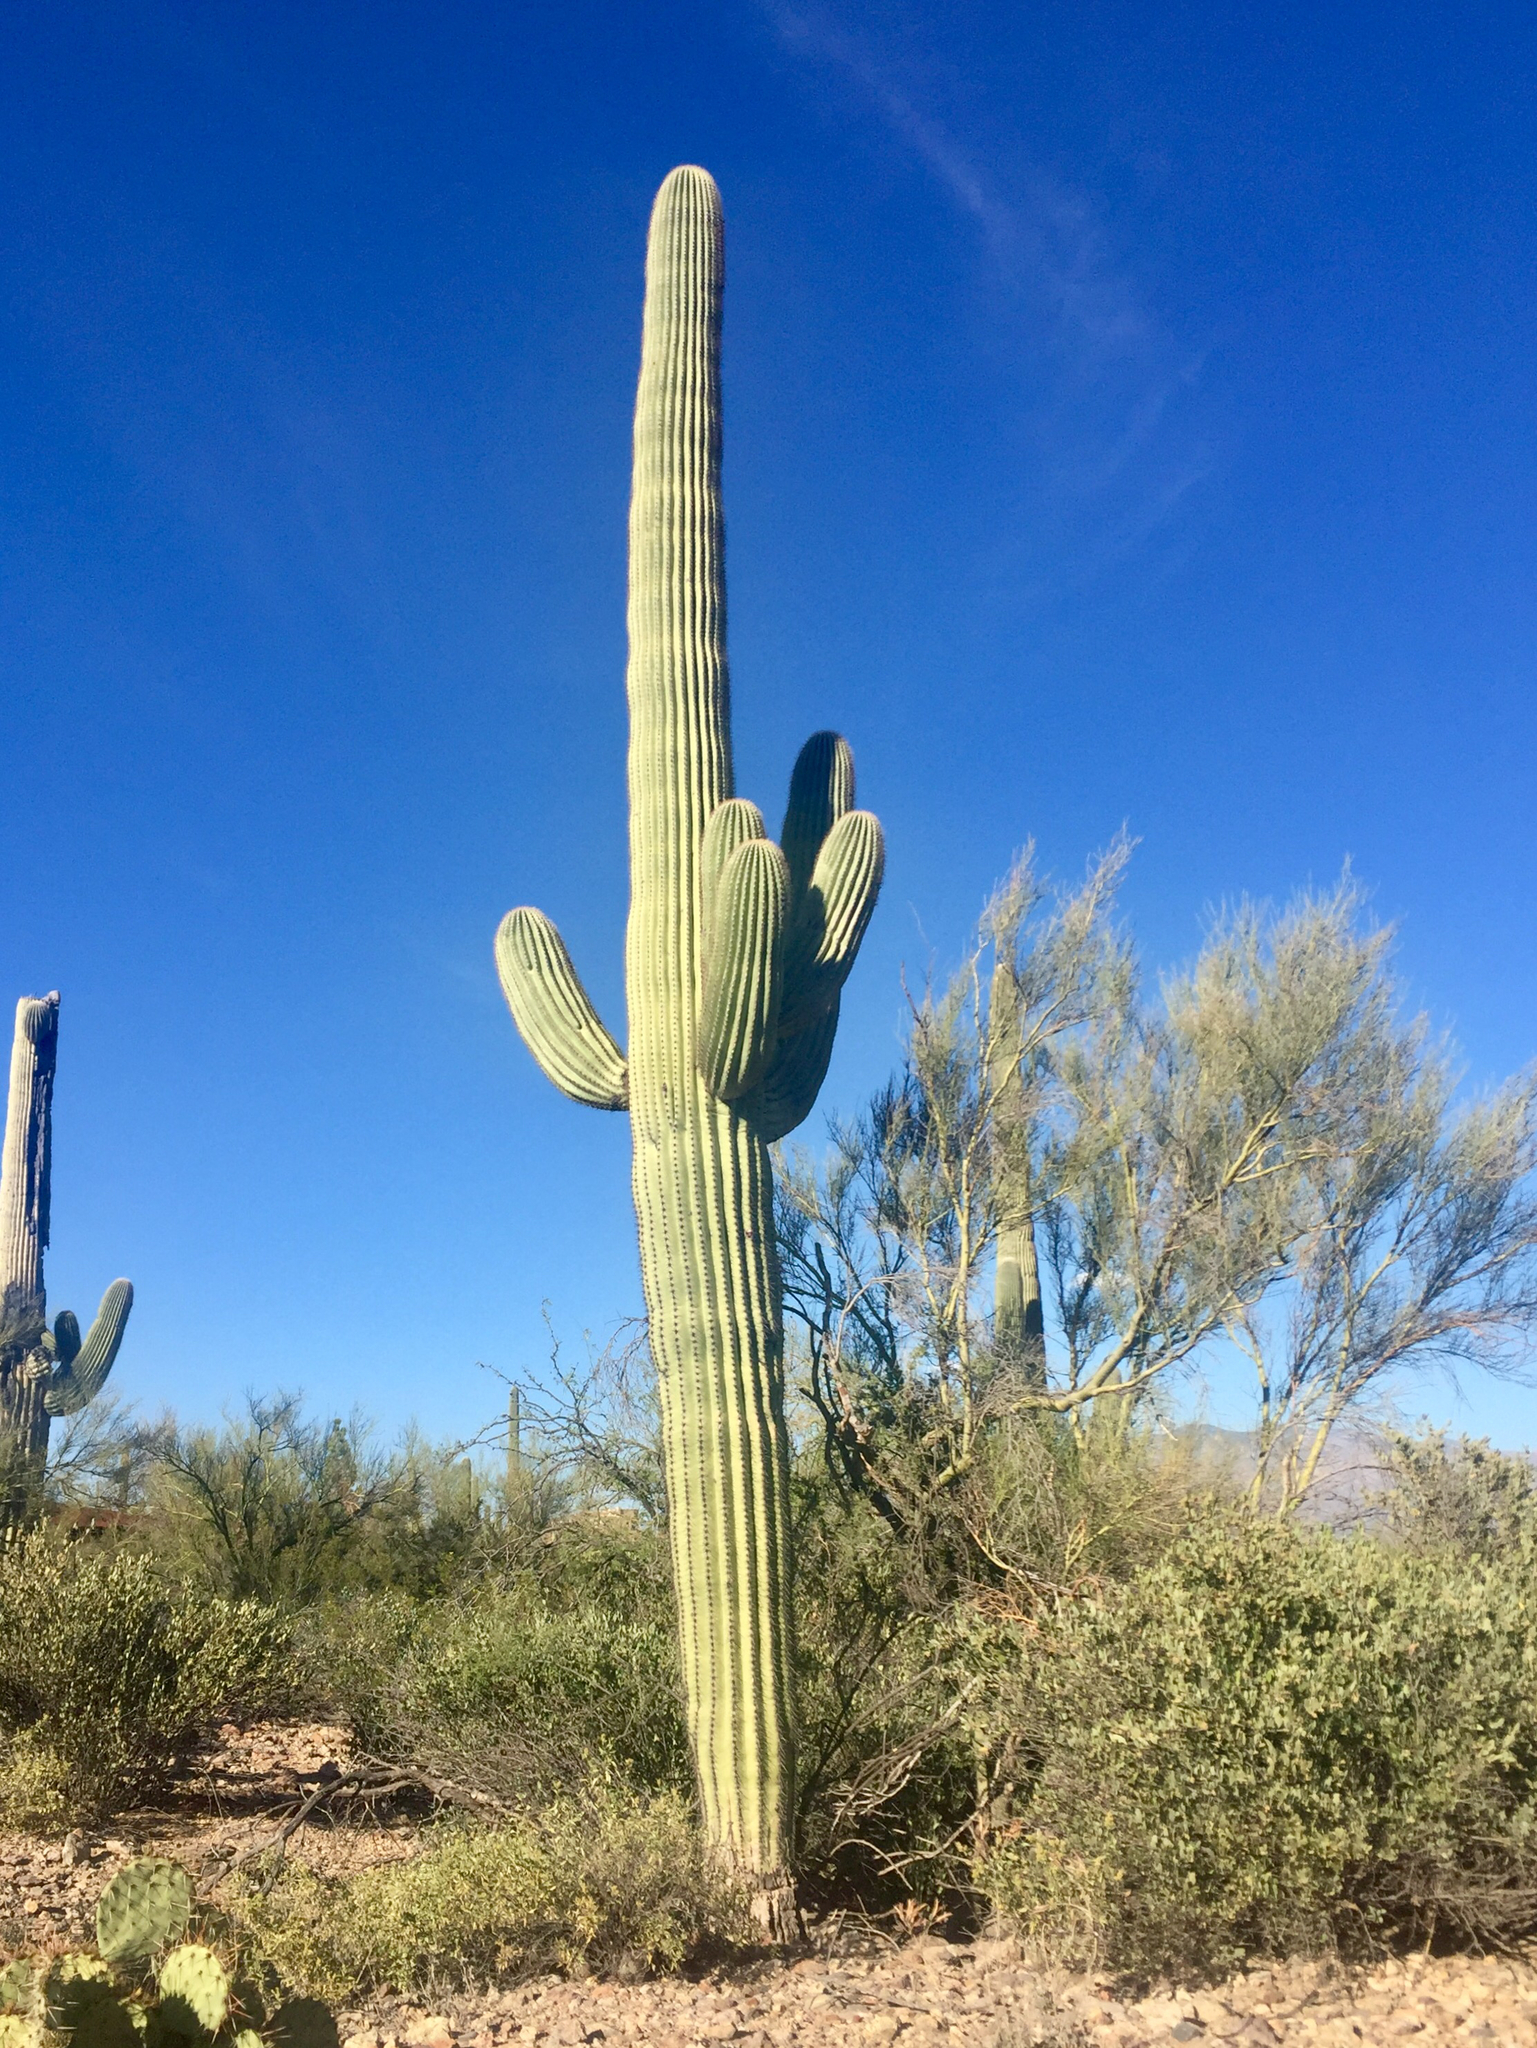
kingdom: Plantae
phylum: Tracheophyta
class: Magnoliopsida
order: Caryophyllales
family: Cactaceae
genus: Carnegiea
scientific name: Carnegiea gigantea
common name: Saguaro
